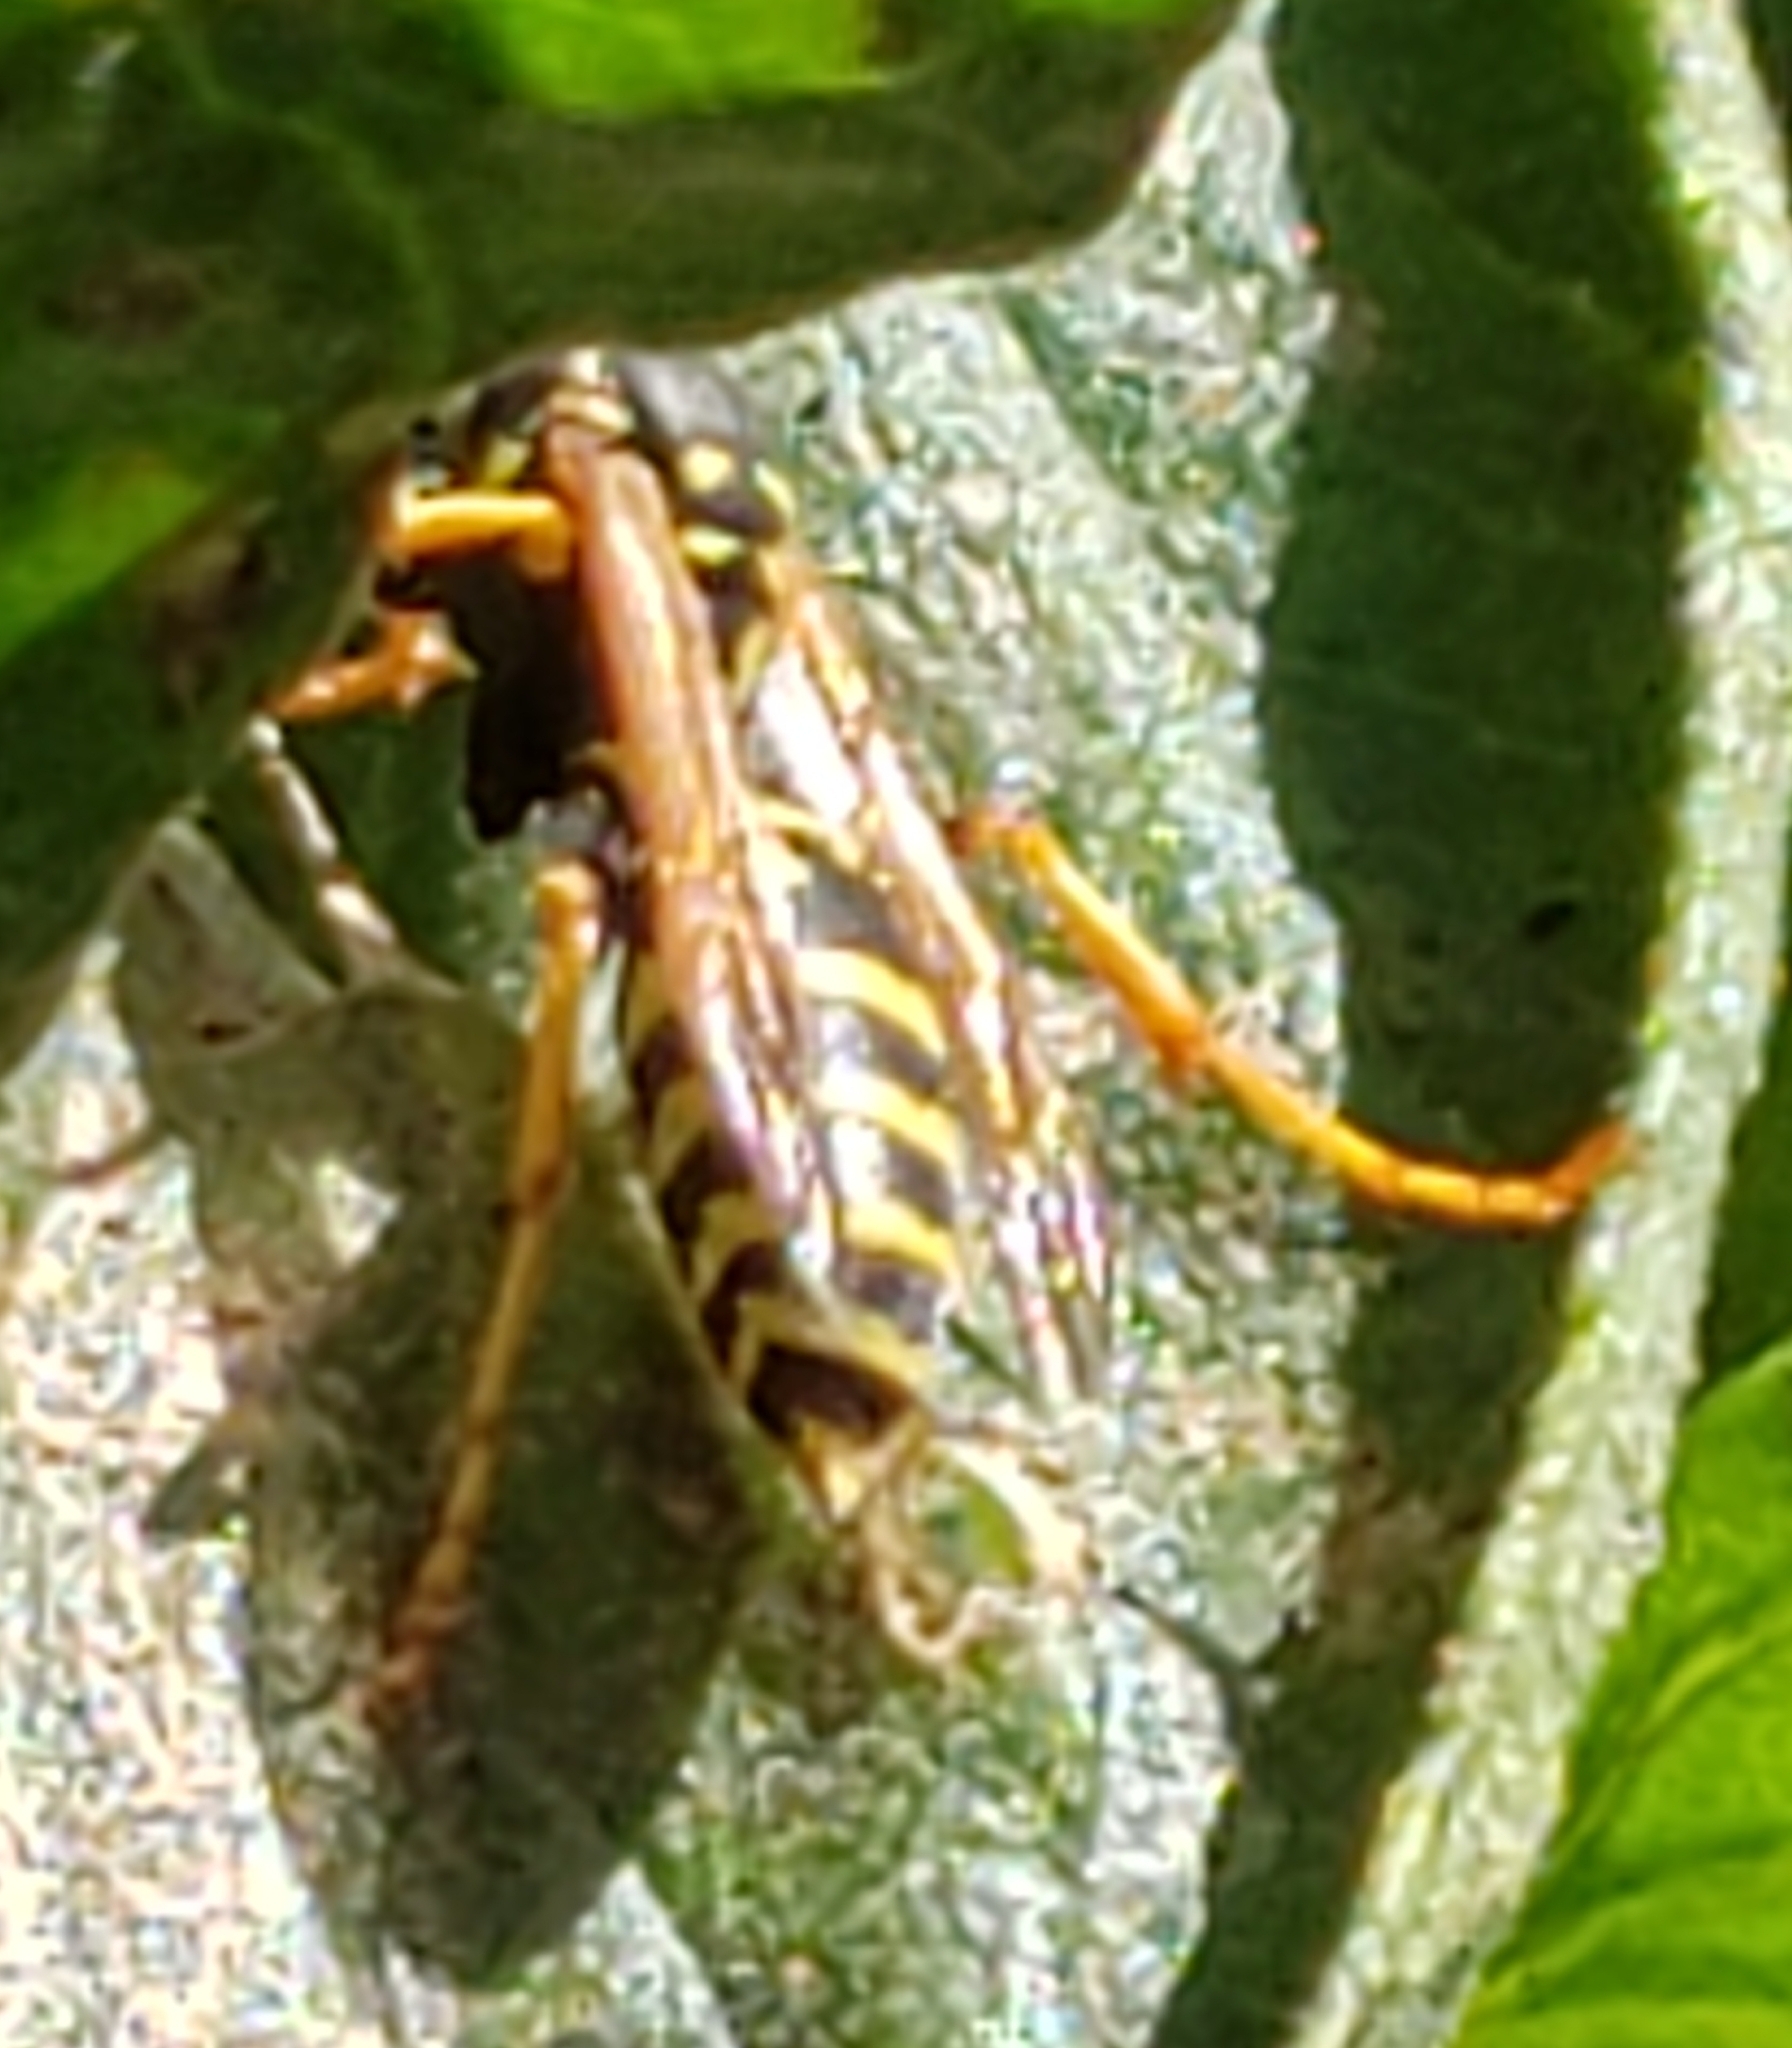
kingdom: Animalia
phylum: Arthropoda
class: Insecta
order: Hymenoptera
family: Eumenidae
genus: Polistes
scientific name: Polistes dominula
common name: Paper wasp
